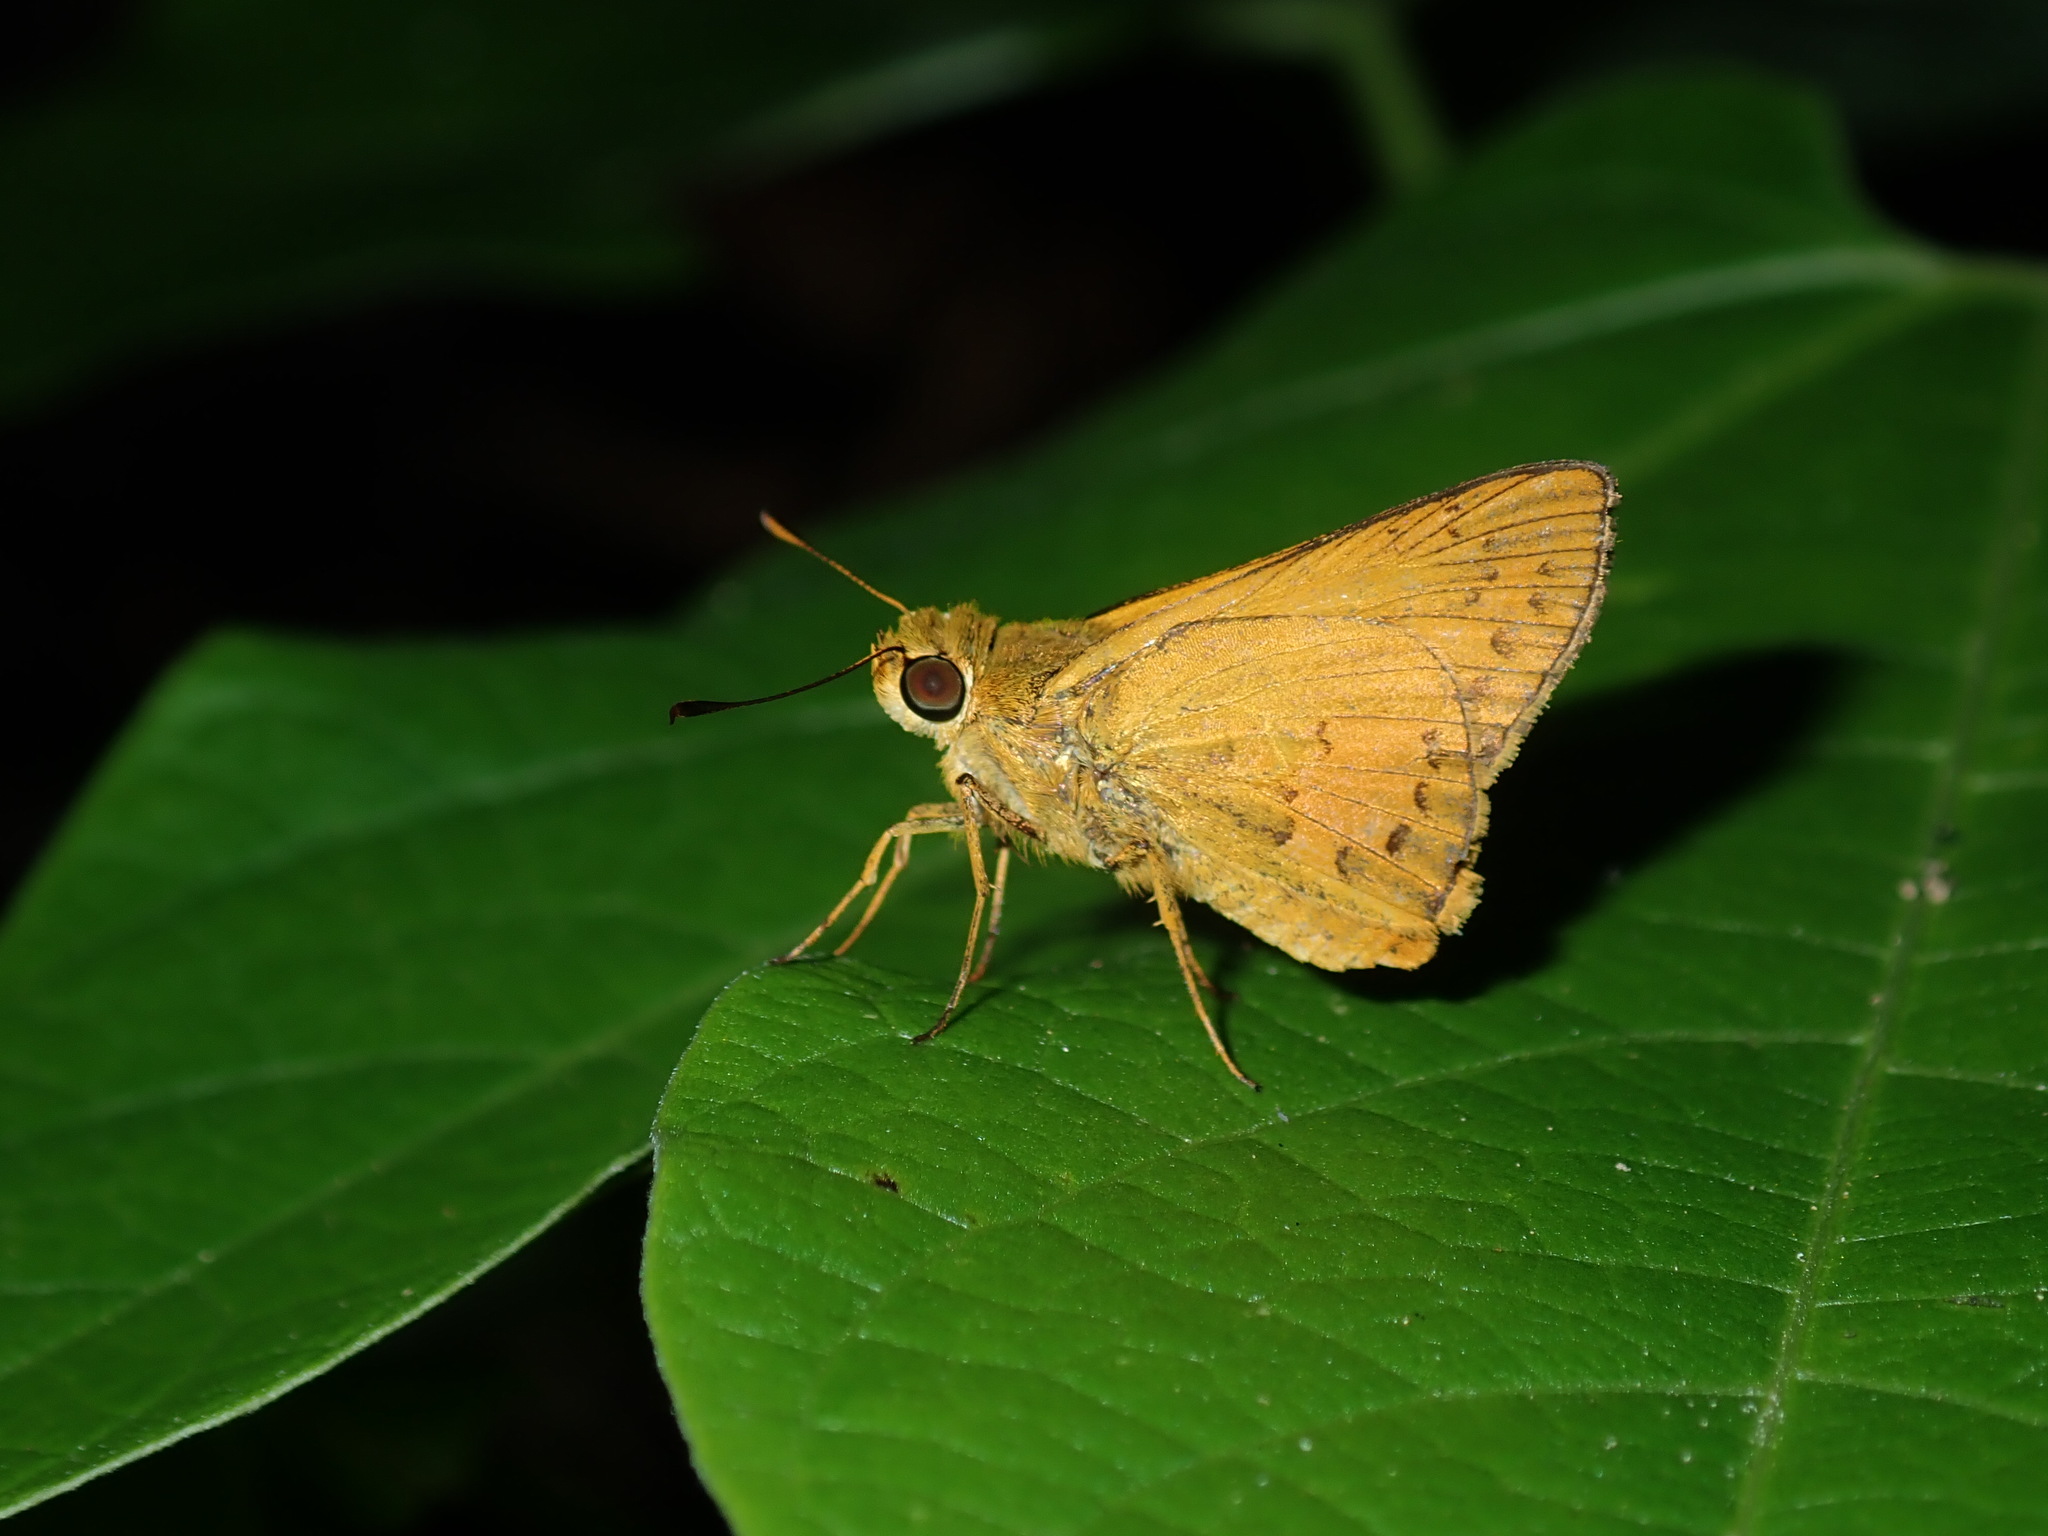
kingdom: Animalia
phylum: Arthropoda
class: Insecta
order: Lepidoptera
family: Hesperiidae
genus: Telicota
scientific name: Telicota colon
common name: Pale palm dart
